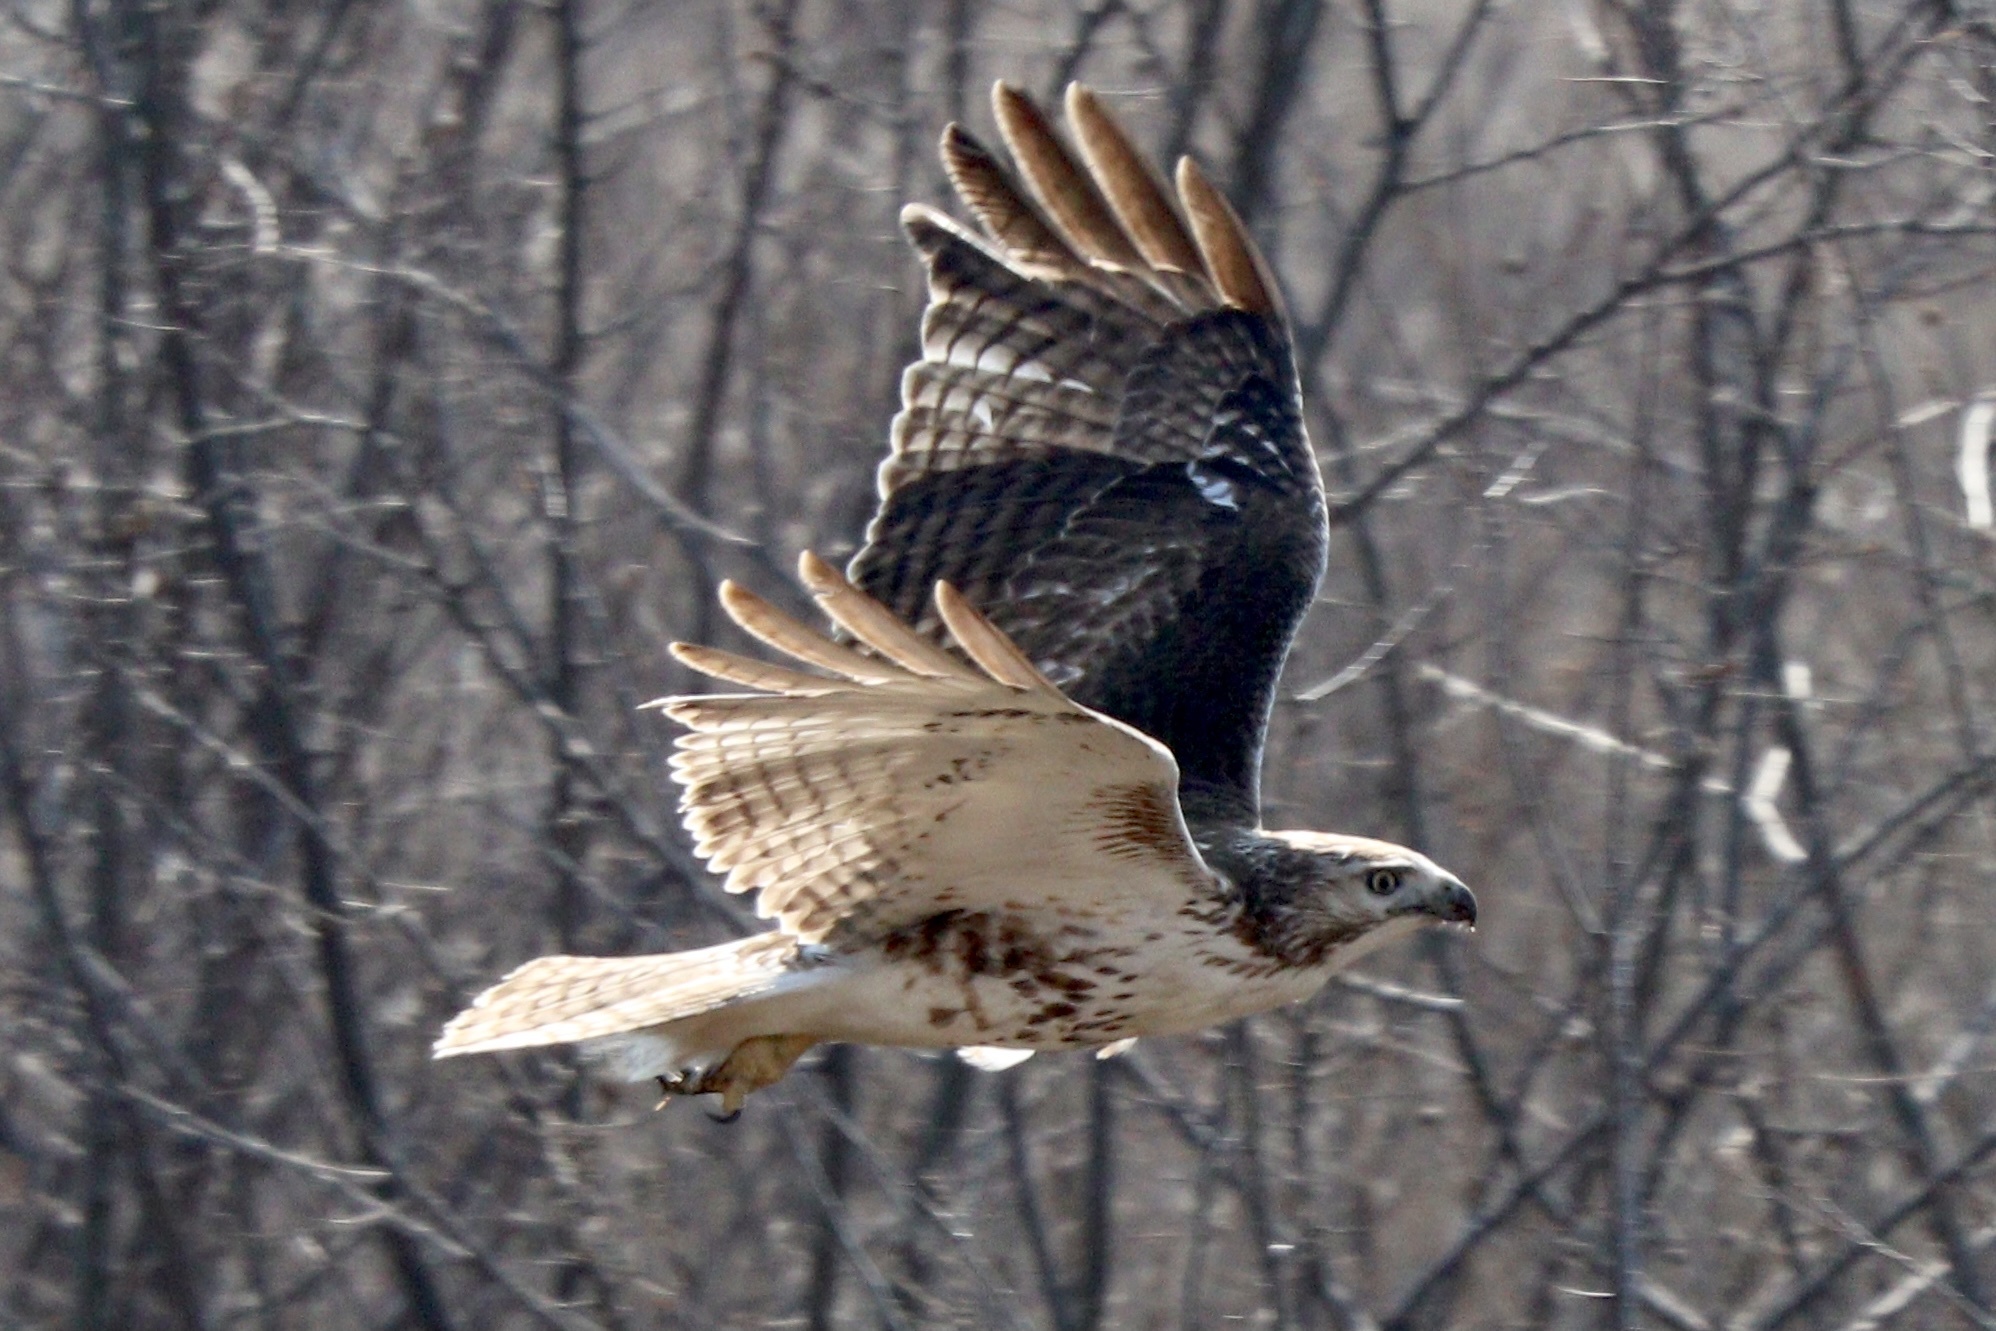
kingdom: Animalia
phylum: Chordata
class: Aves
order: Accipitriformes
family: Accipitridae
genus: Buteo
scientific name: Buteo jamaicensis
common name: Red-tailed hawk
